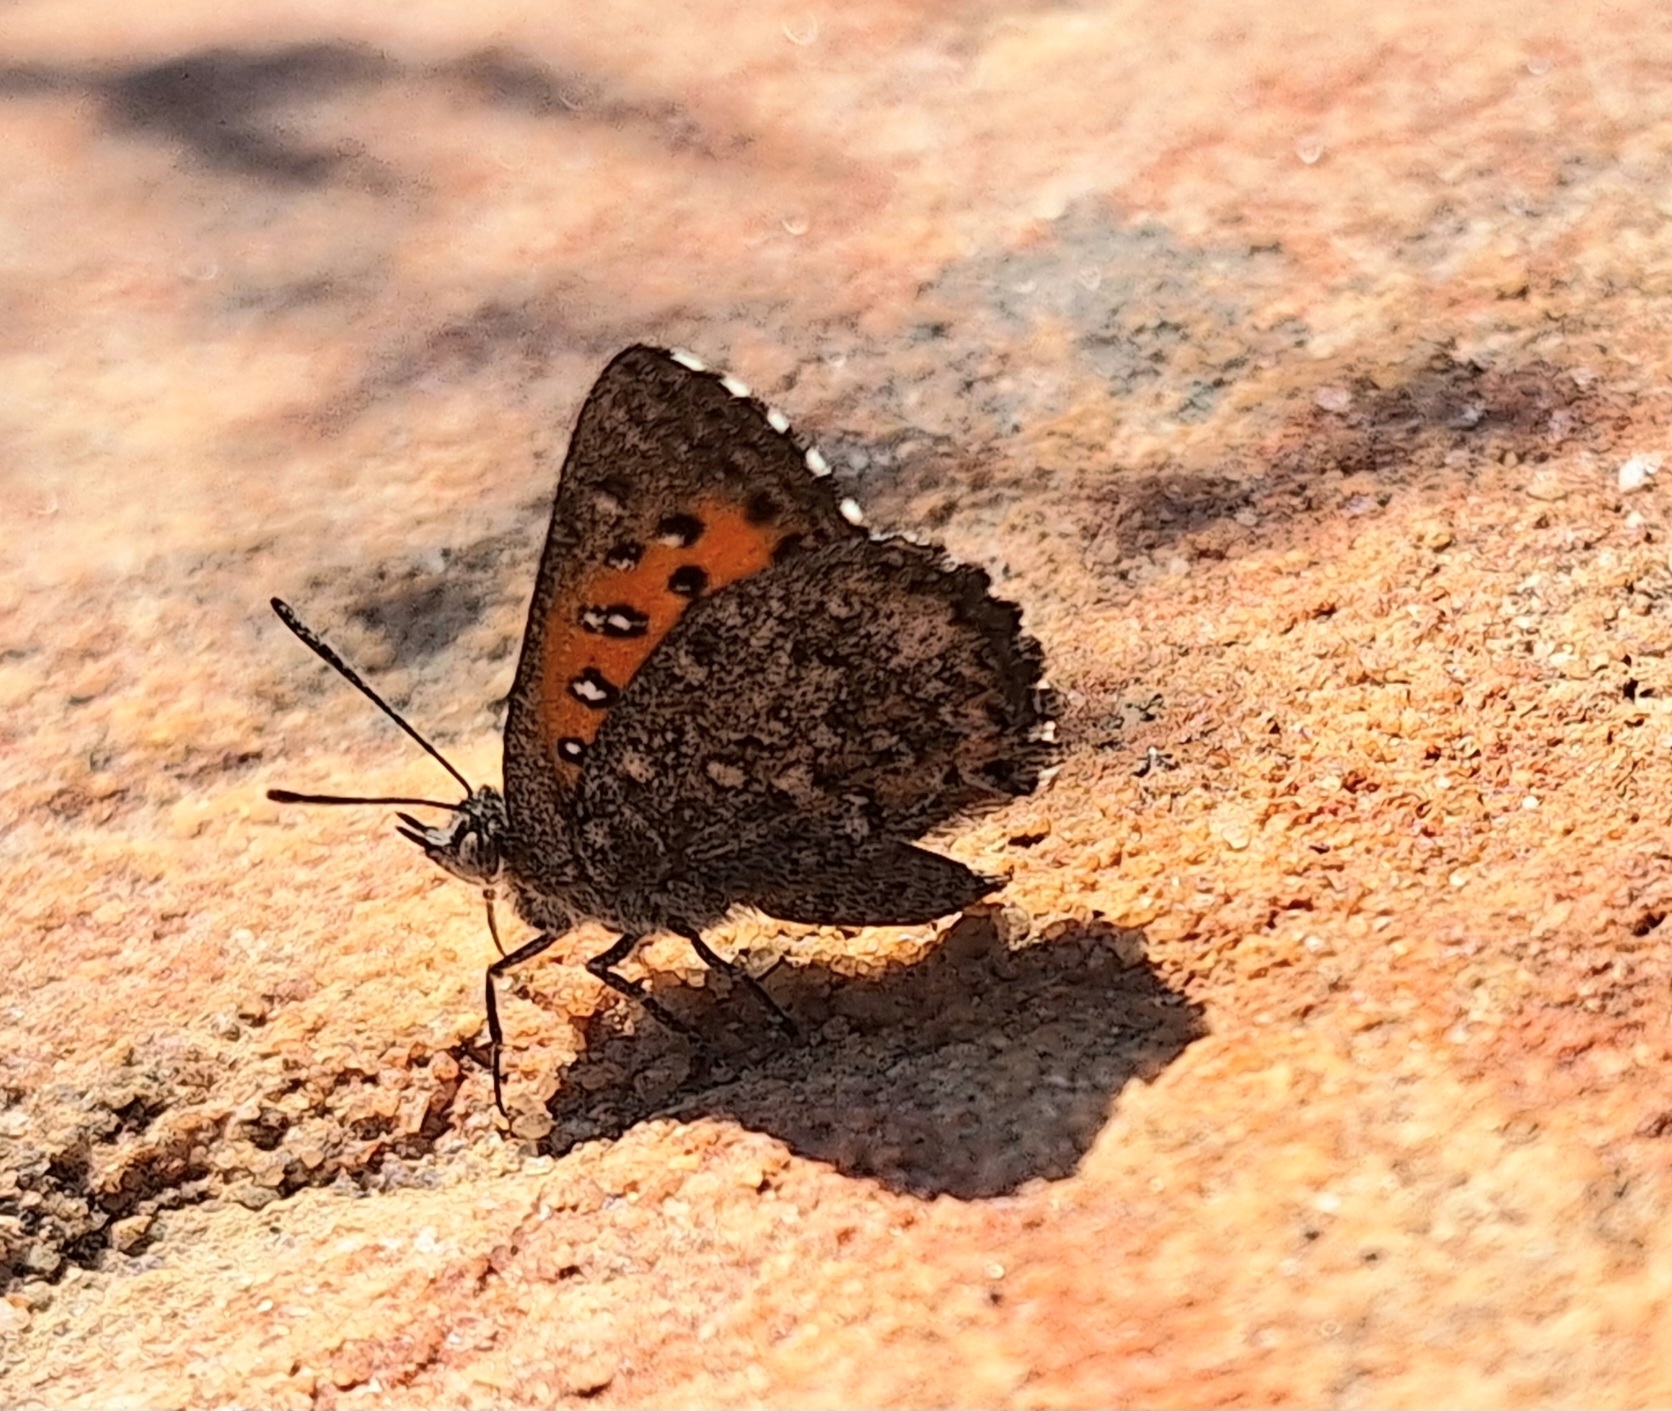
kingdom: Animalia
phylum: Arthropoda
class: Insecta
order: Lepidoptera
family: Lycaenidae
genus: Aloeides
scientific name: Aloeides arida
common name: Arid copper
